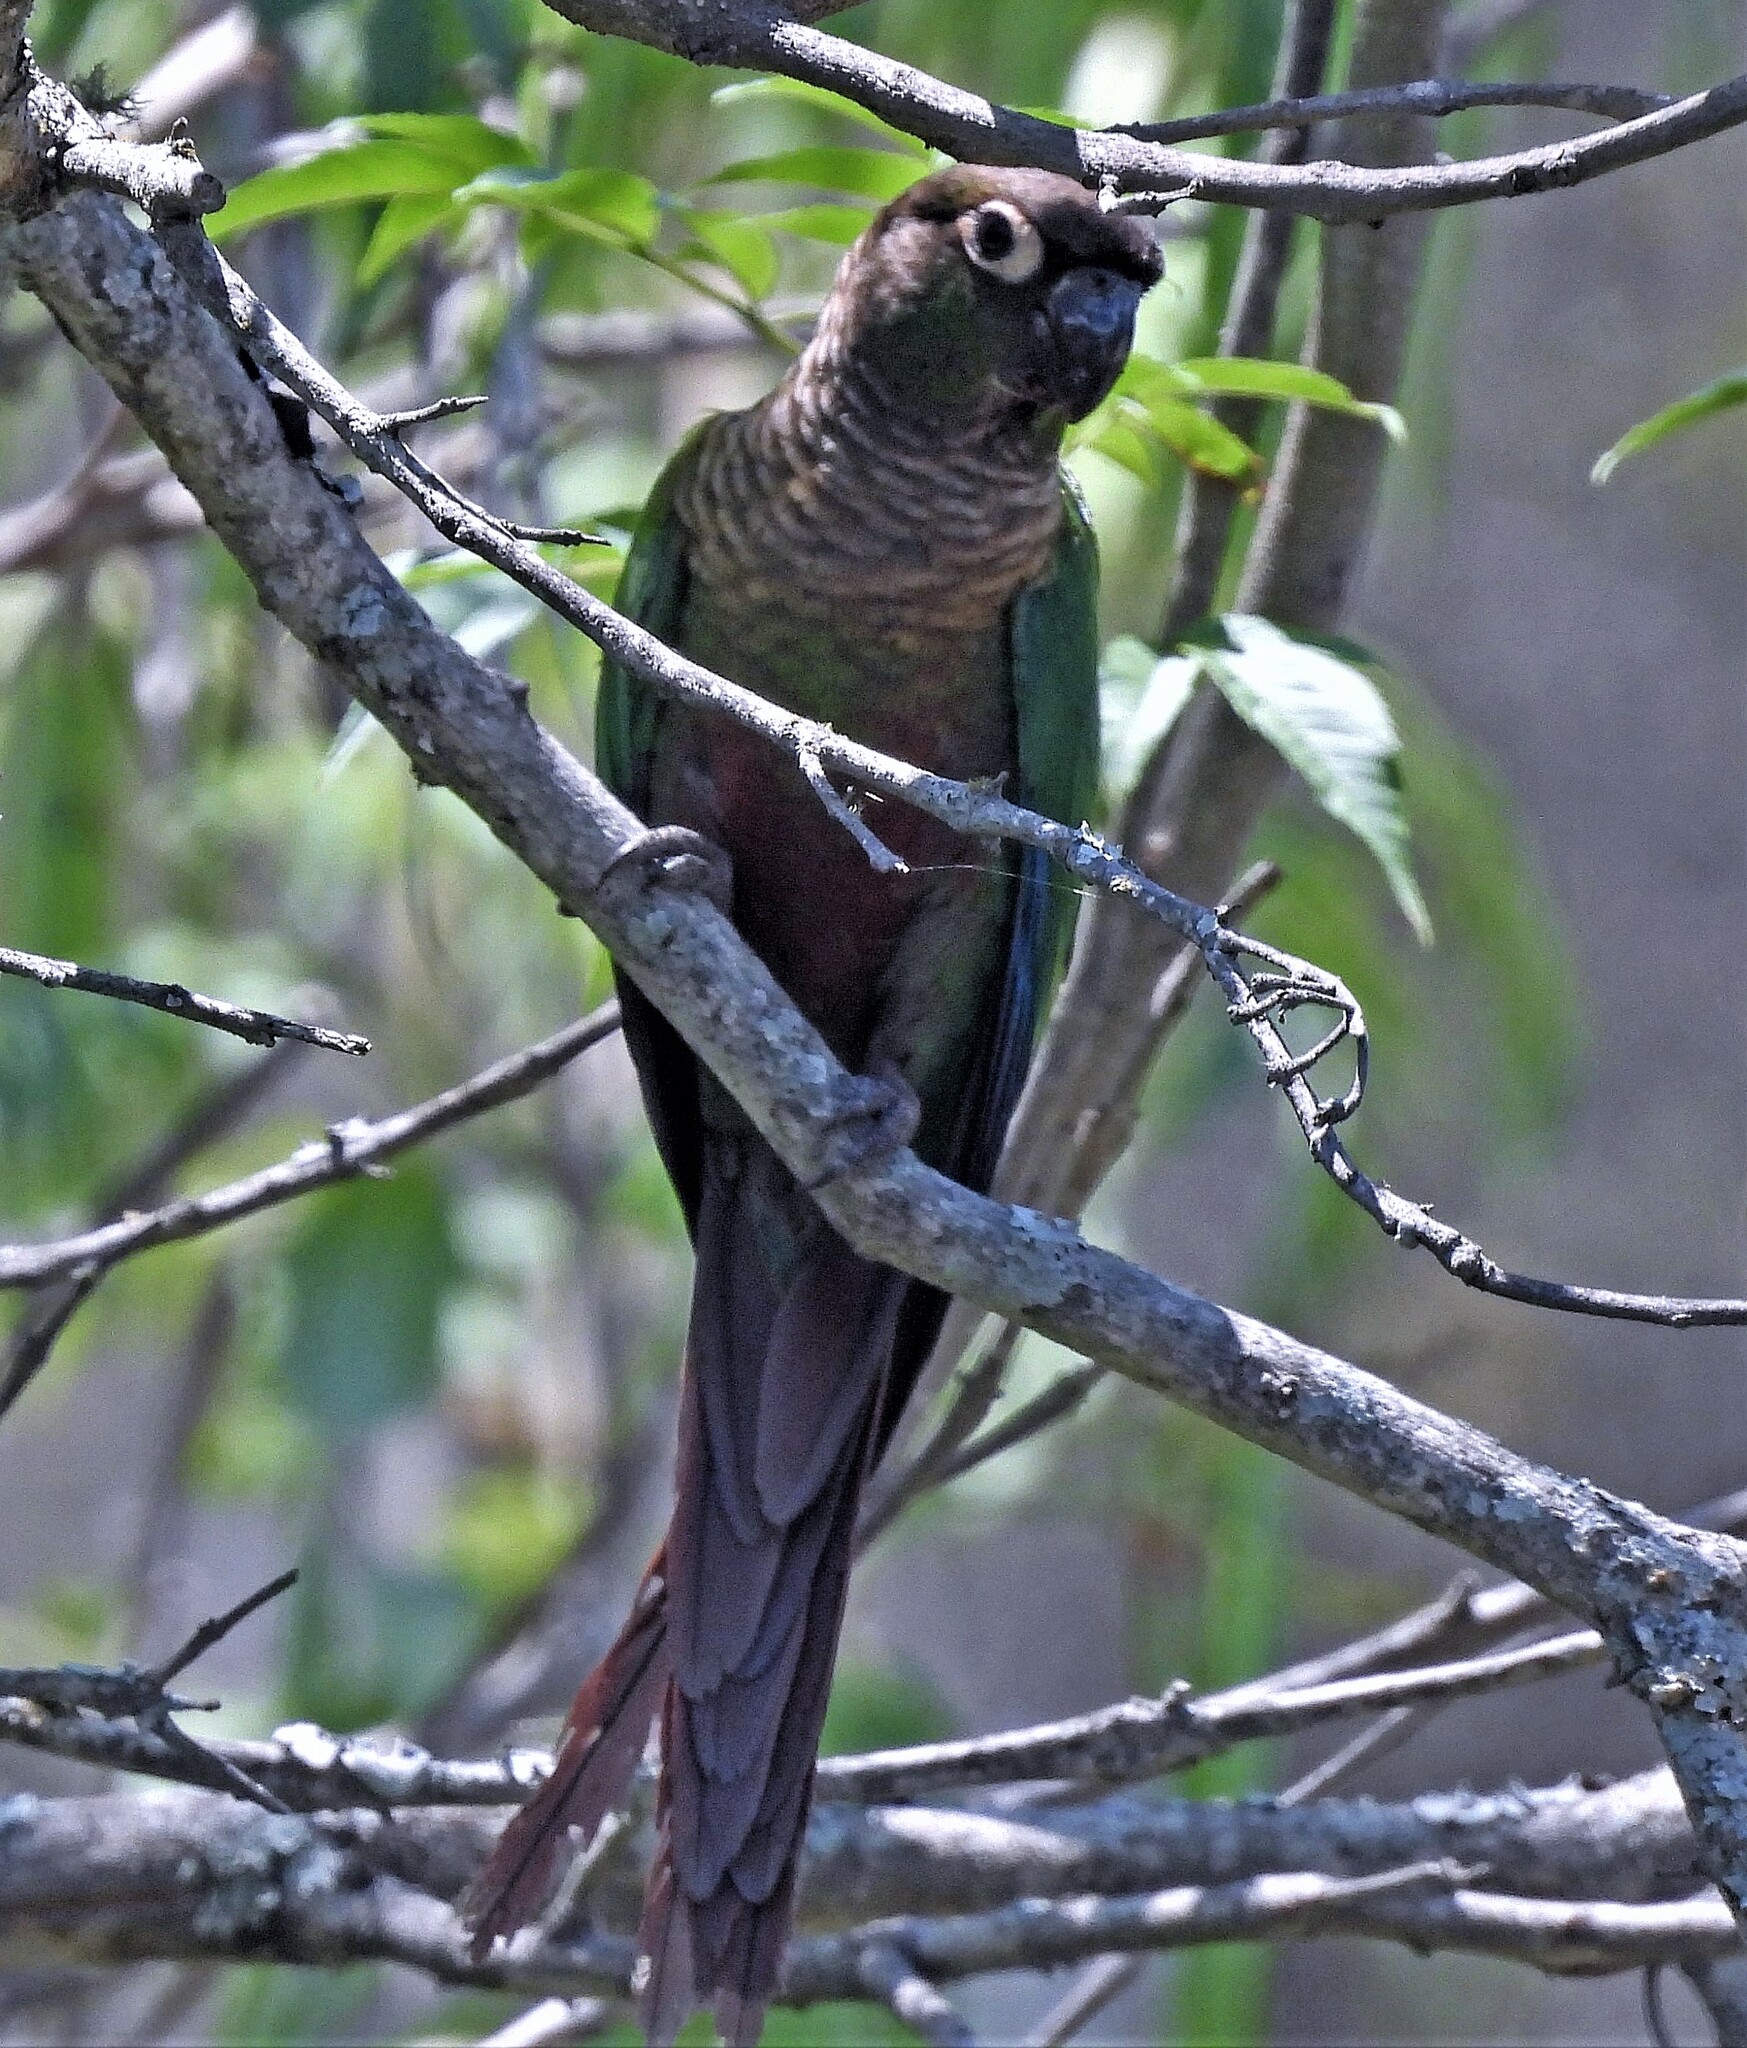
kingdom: Animalia
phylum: Chordata
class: Aves
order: Psittaciformes
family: Psittacidae
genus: Pyrrhura
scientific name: Pyrrhura molinae
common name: Green-cheeked parakeet
